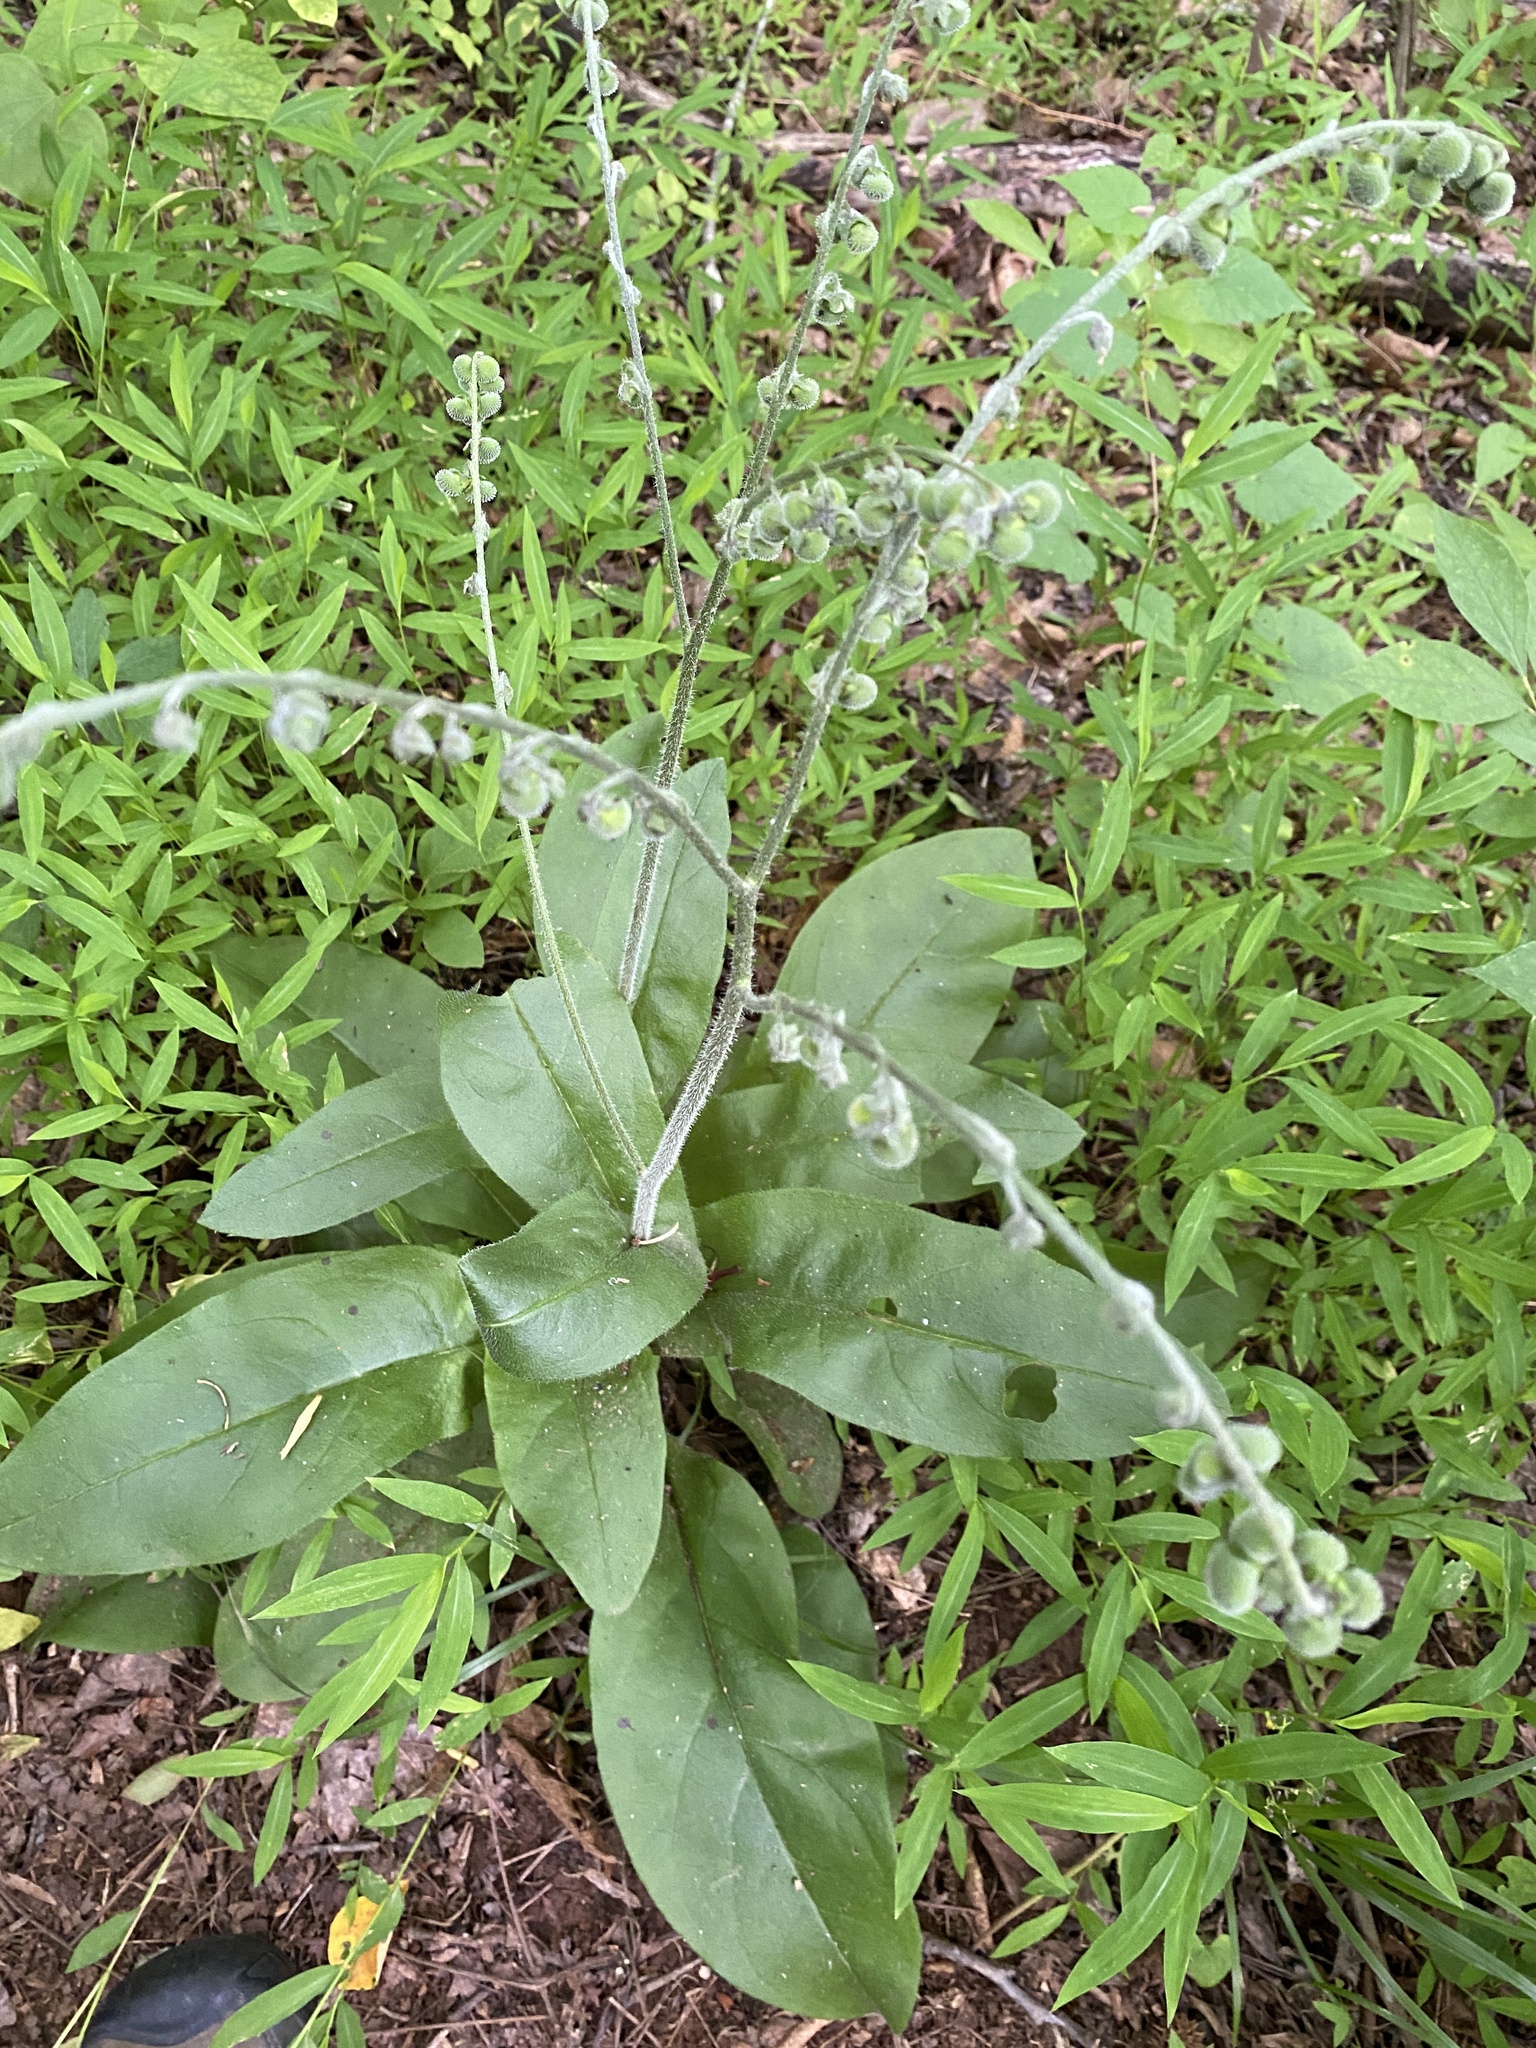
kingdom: Plantae
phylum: Tracheophyta
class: Magnoliopsida
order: Boraginales
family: Boraginaceae
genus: Andersonglossum
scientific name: Andersonglossum virginianum
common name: Wild comfrey
